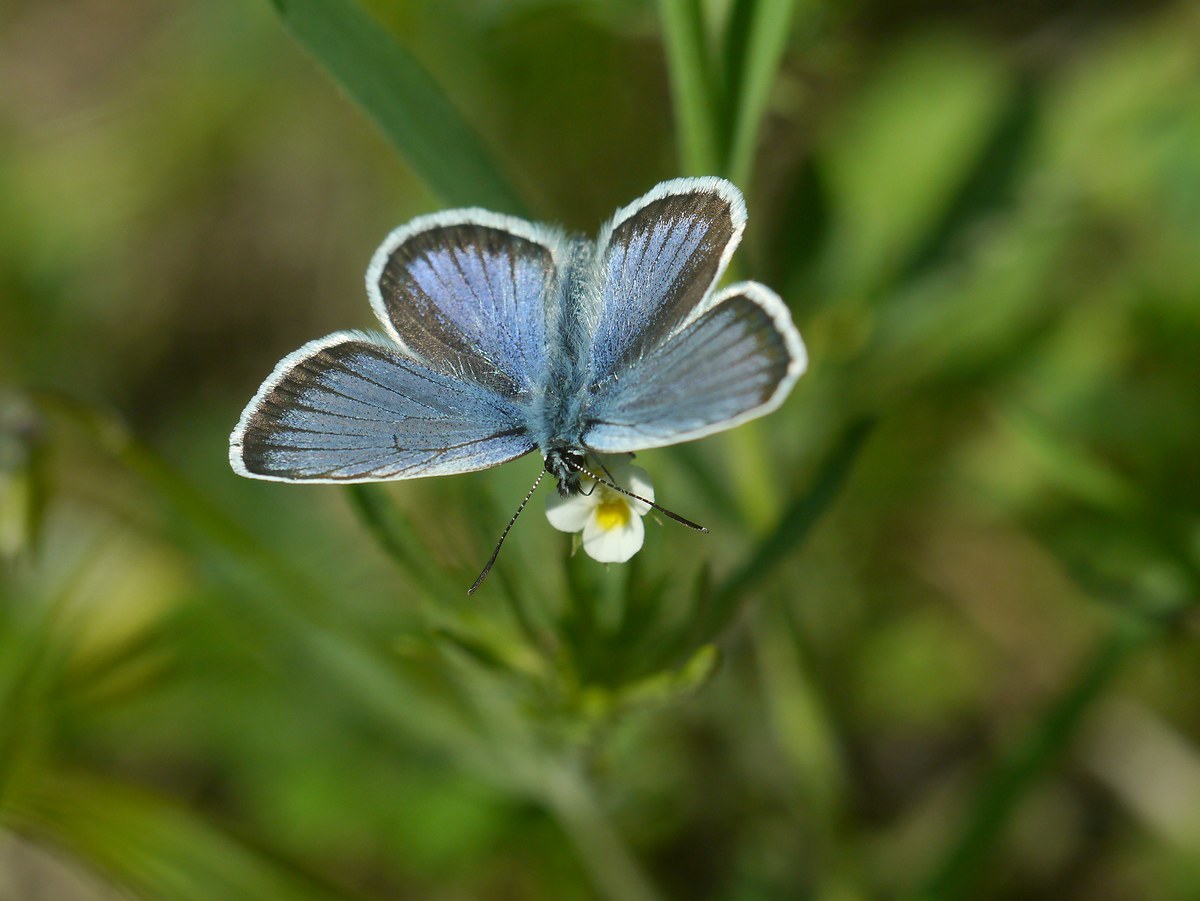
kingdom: Animalia
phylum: Arthropoda
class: Insecta
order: Lepidoptera
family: Lycaenidae
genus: Plebejus
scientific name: Plebejus argus
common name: Silver-studded blue
